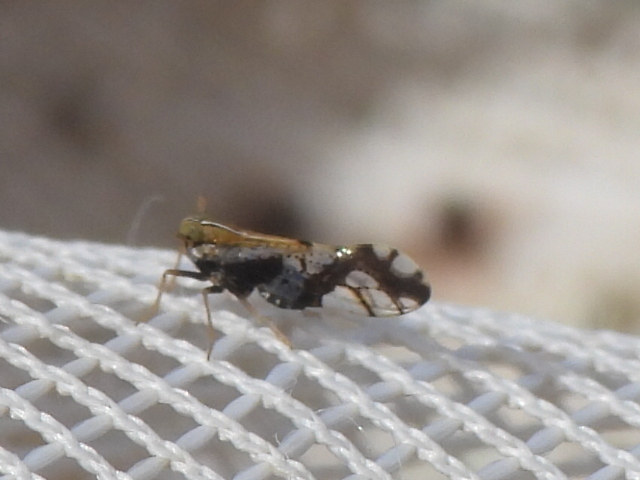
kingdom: Animalia
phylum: Arthropoda
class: Insecta
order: Hemiptera
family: Delphacidae
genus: Liburniella
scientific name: Liburniella ornata
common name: Ornate planthopper
